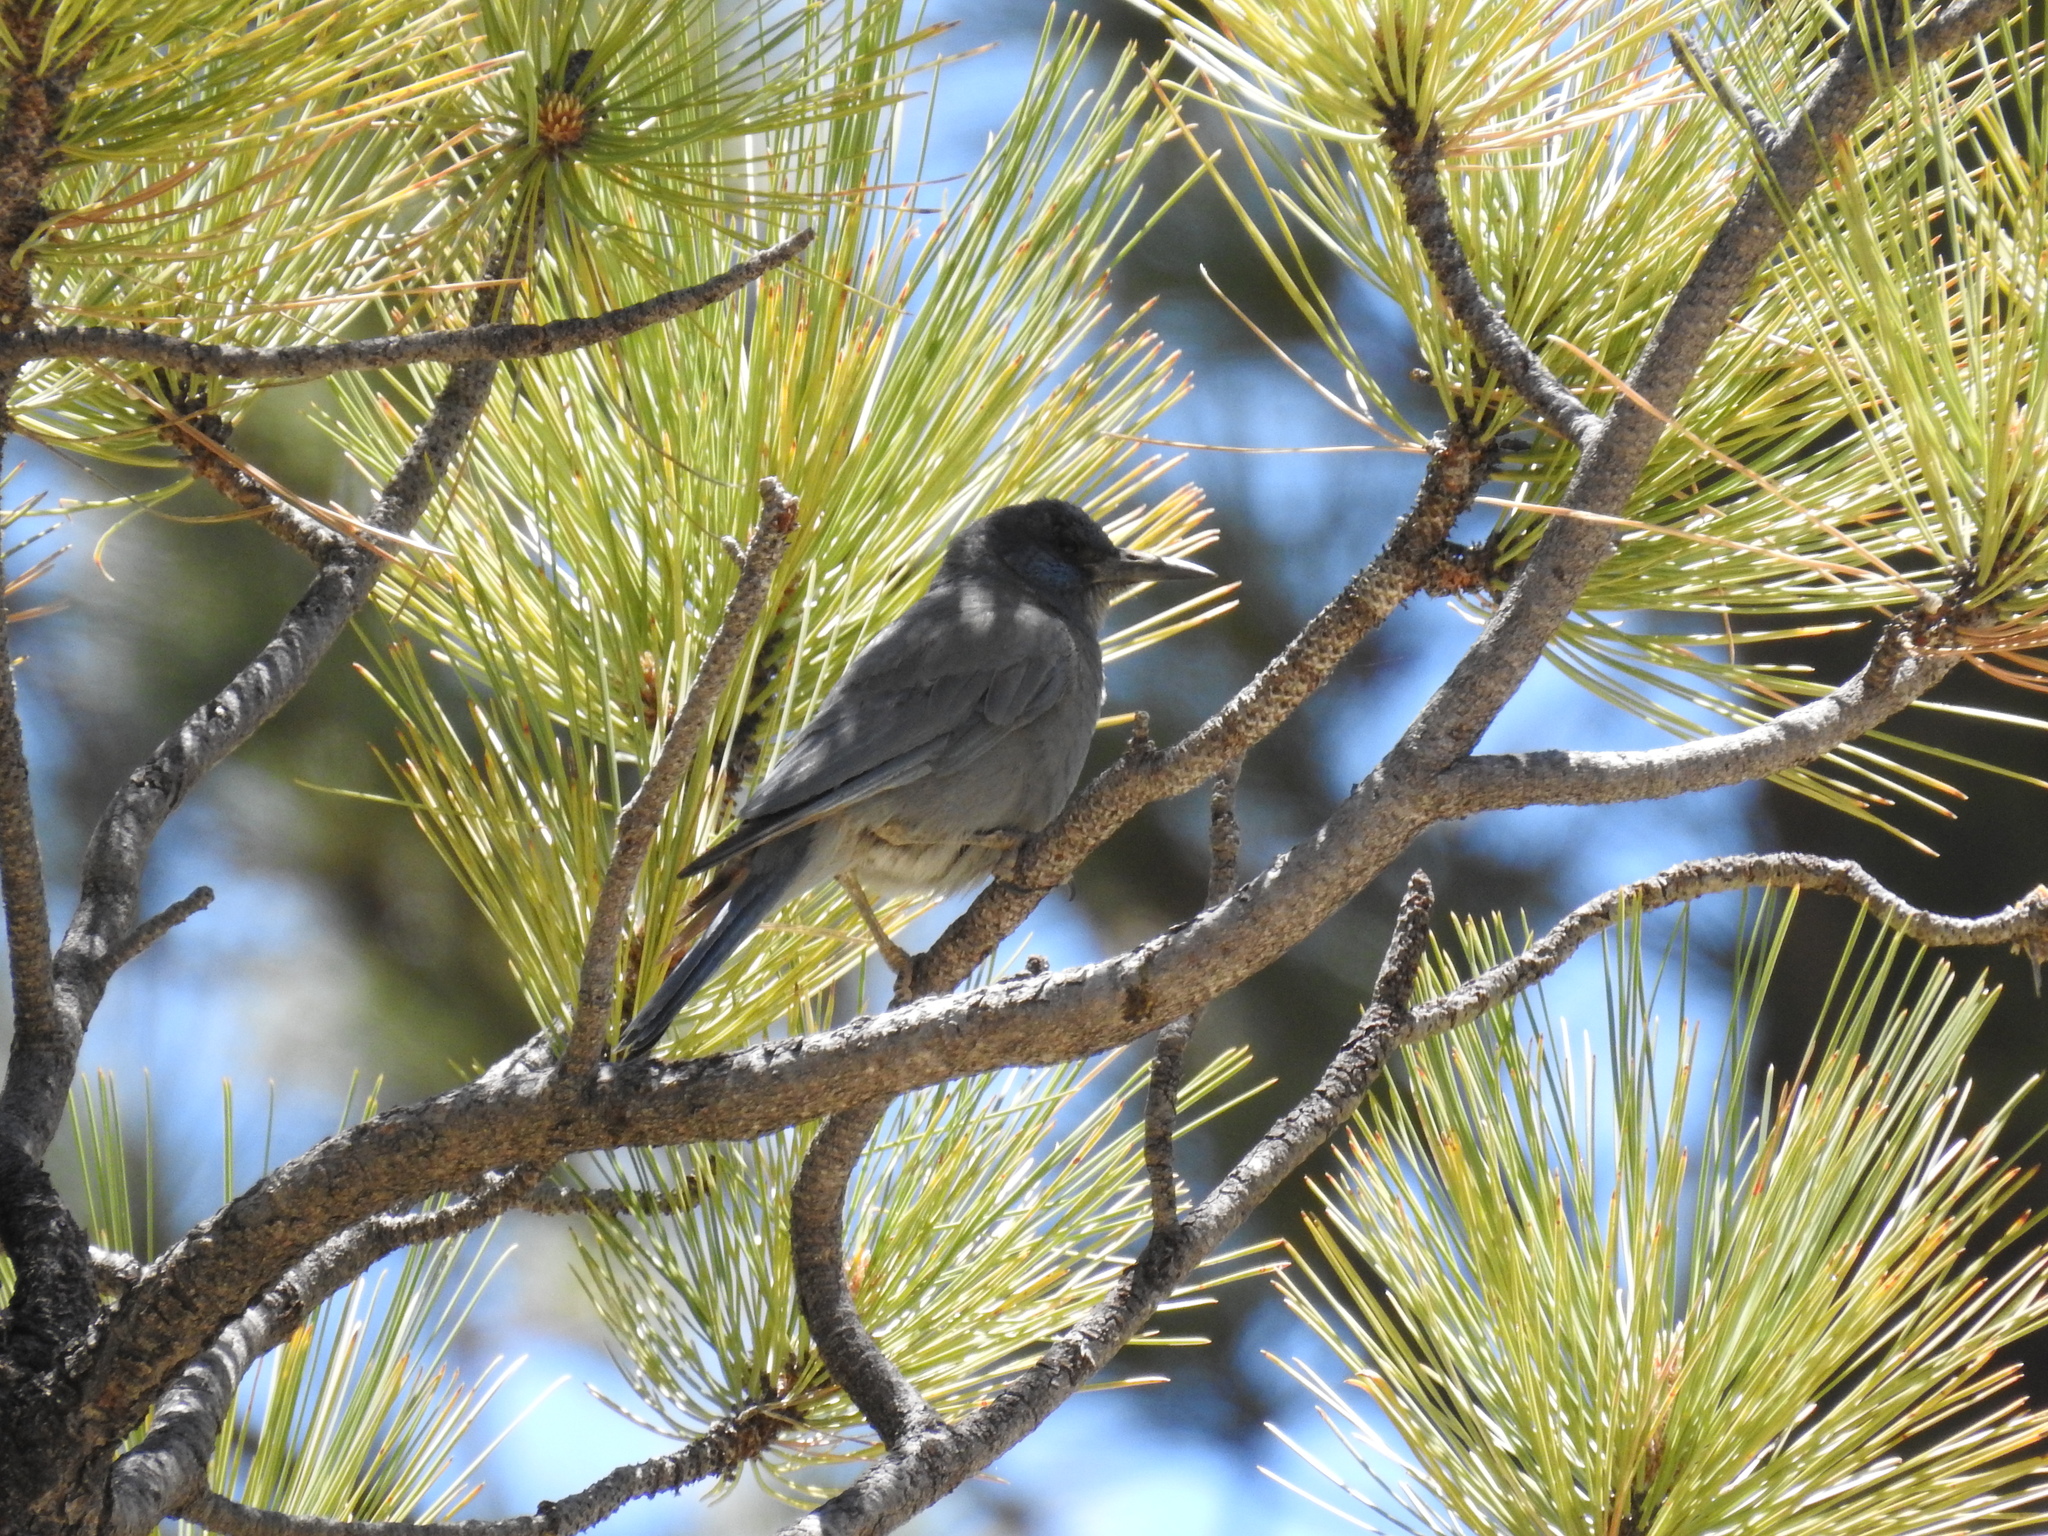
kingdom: Animalia
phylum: Chordata
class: Aves
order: Passeriformes
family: Corvidae
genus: Gymnorhinus
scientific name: Gymnorhinus cyanocephalus
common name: Pinyon jay
